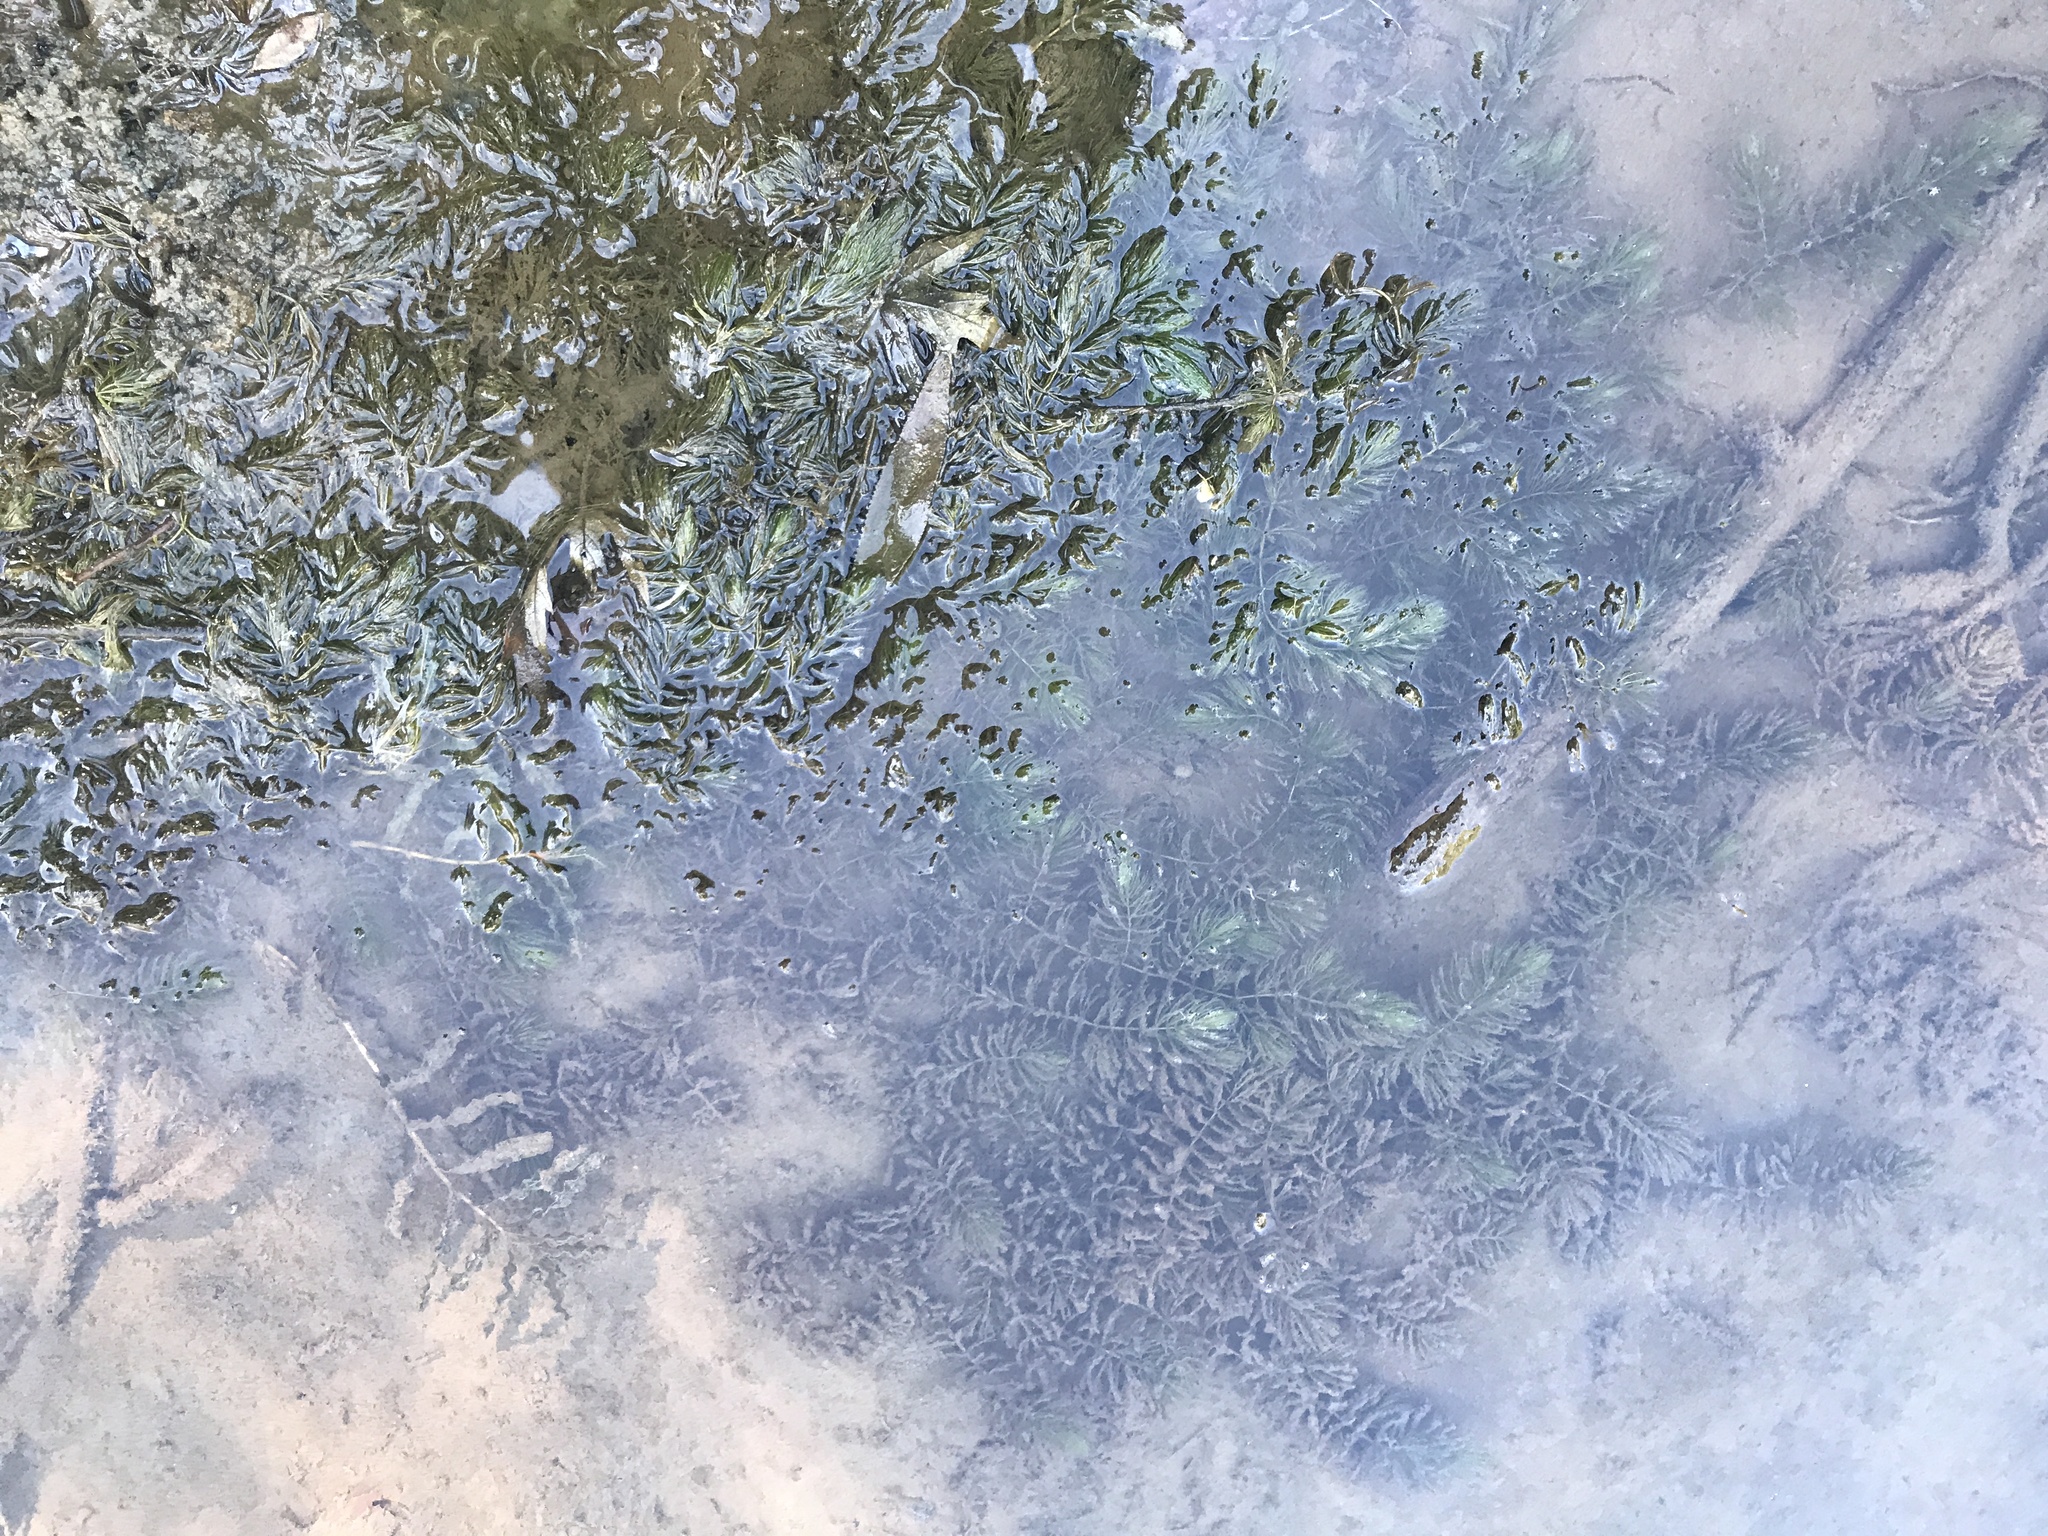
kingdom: Plantae
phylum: Tracheophyta
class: Magnoliopsida
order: Ceratophyllales
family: Ceratophyllaceae
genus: Ceratophyllum
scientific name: Ceratophyllum demersum
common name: Rigid hornwort
